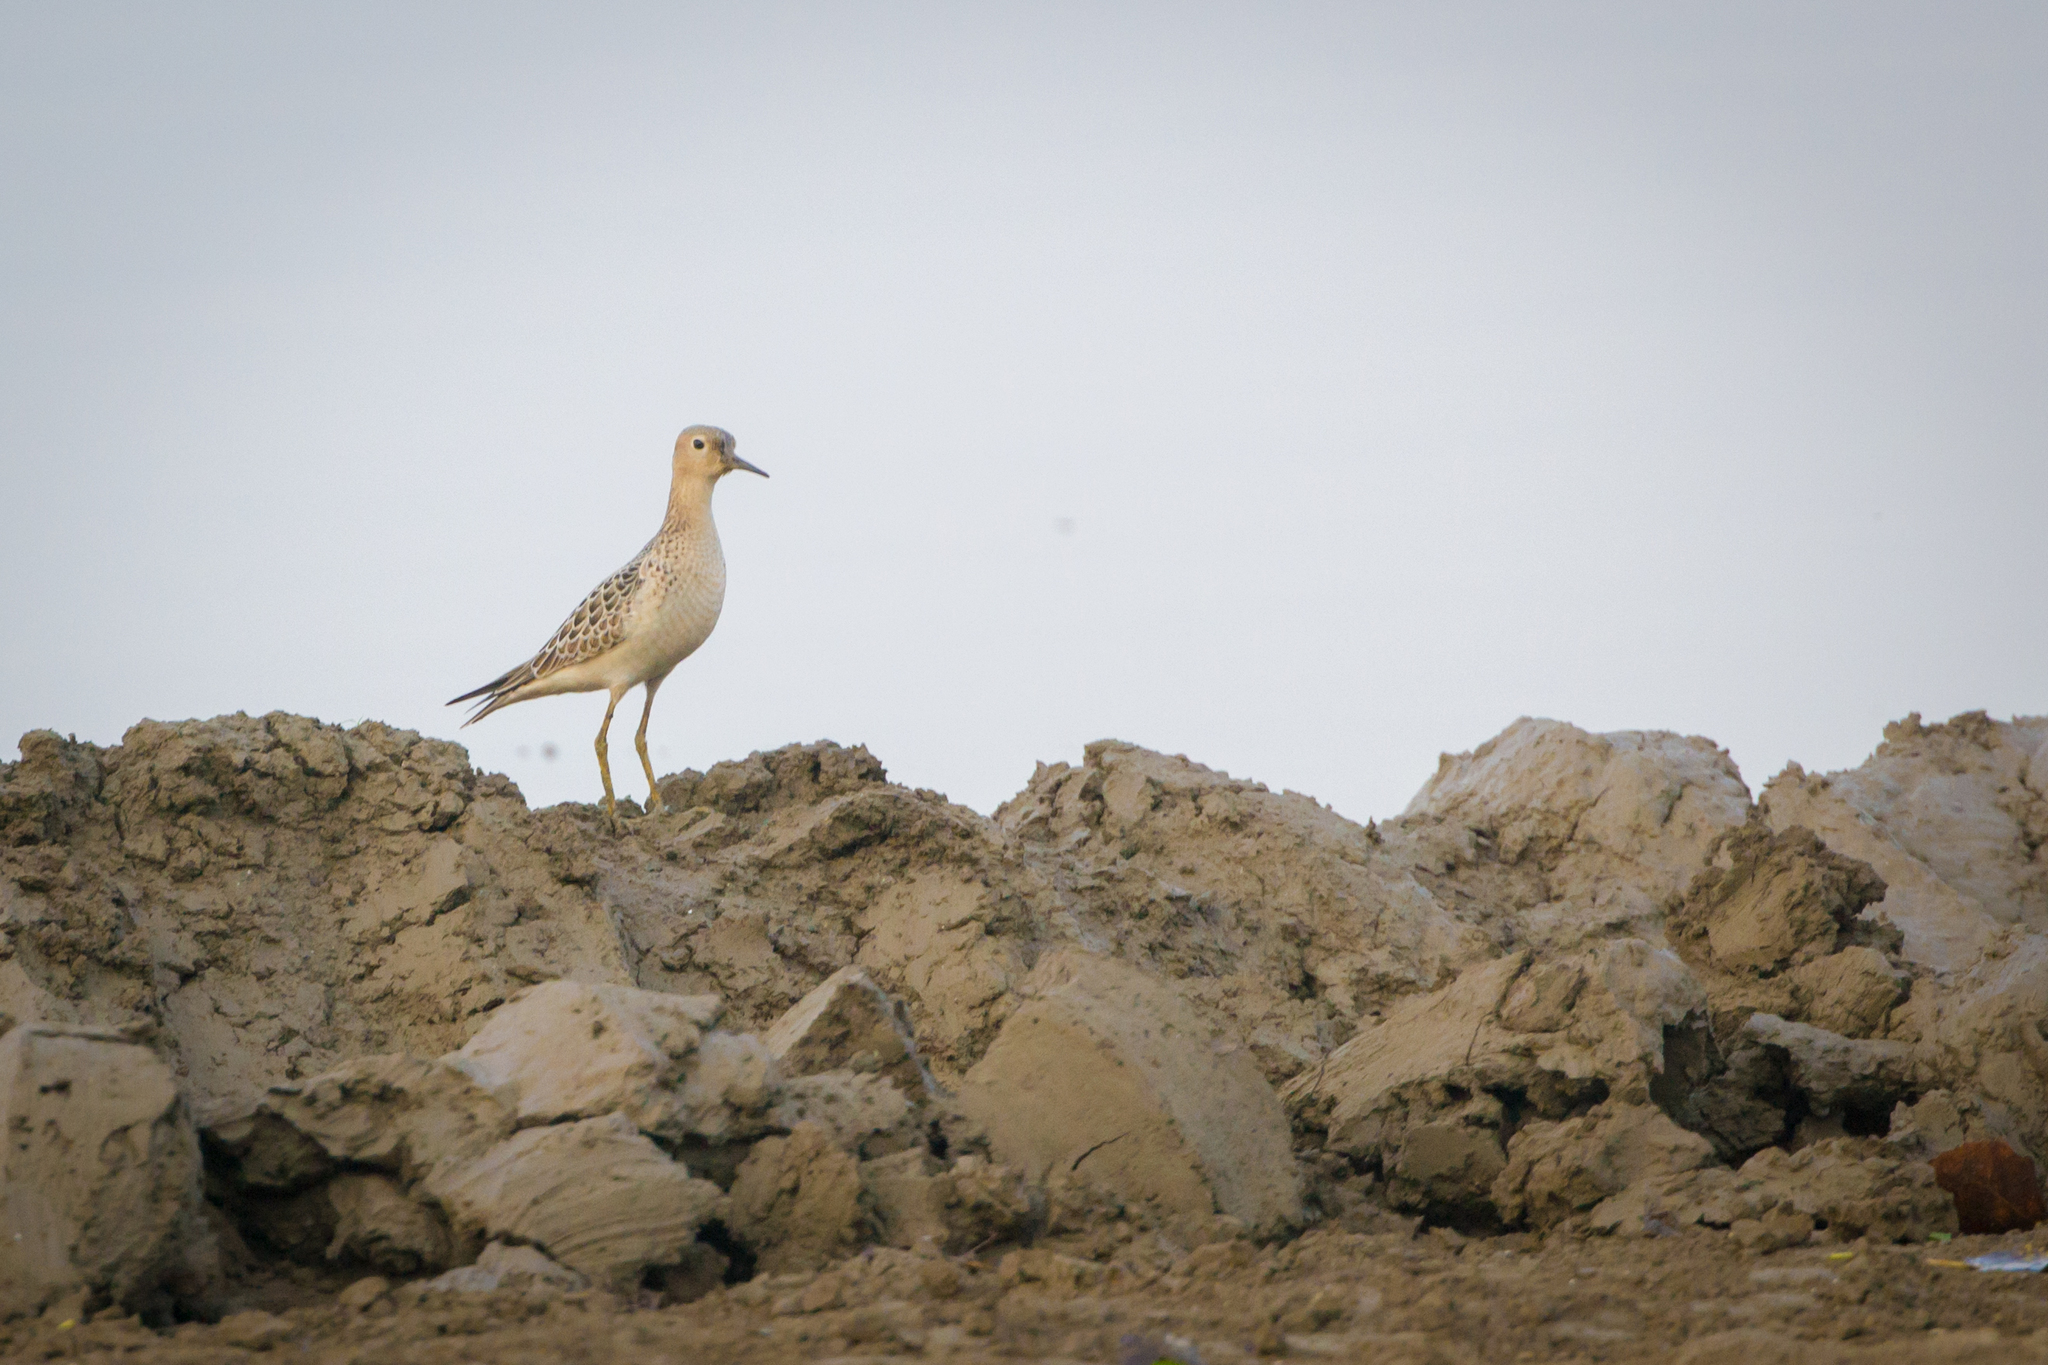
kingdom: Animalia
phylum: Chordata
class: Aves
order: Charadriiformes
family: Scolopacidae
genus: Calidris
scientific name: Calidris subruficollis
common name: Buff-breasted sandpiper
